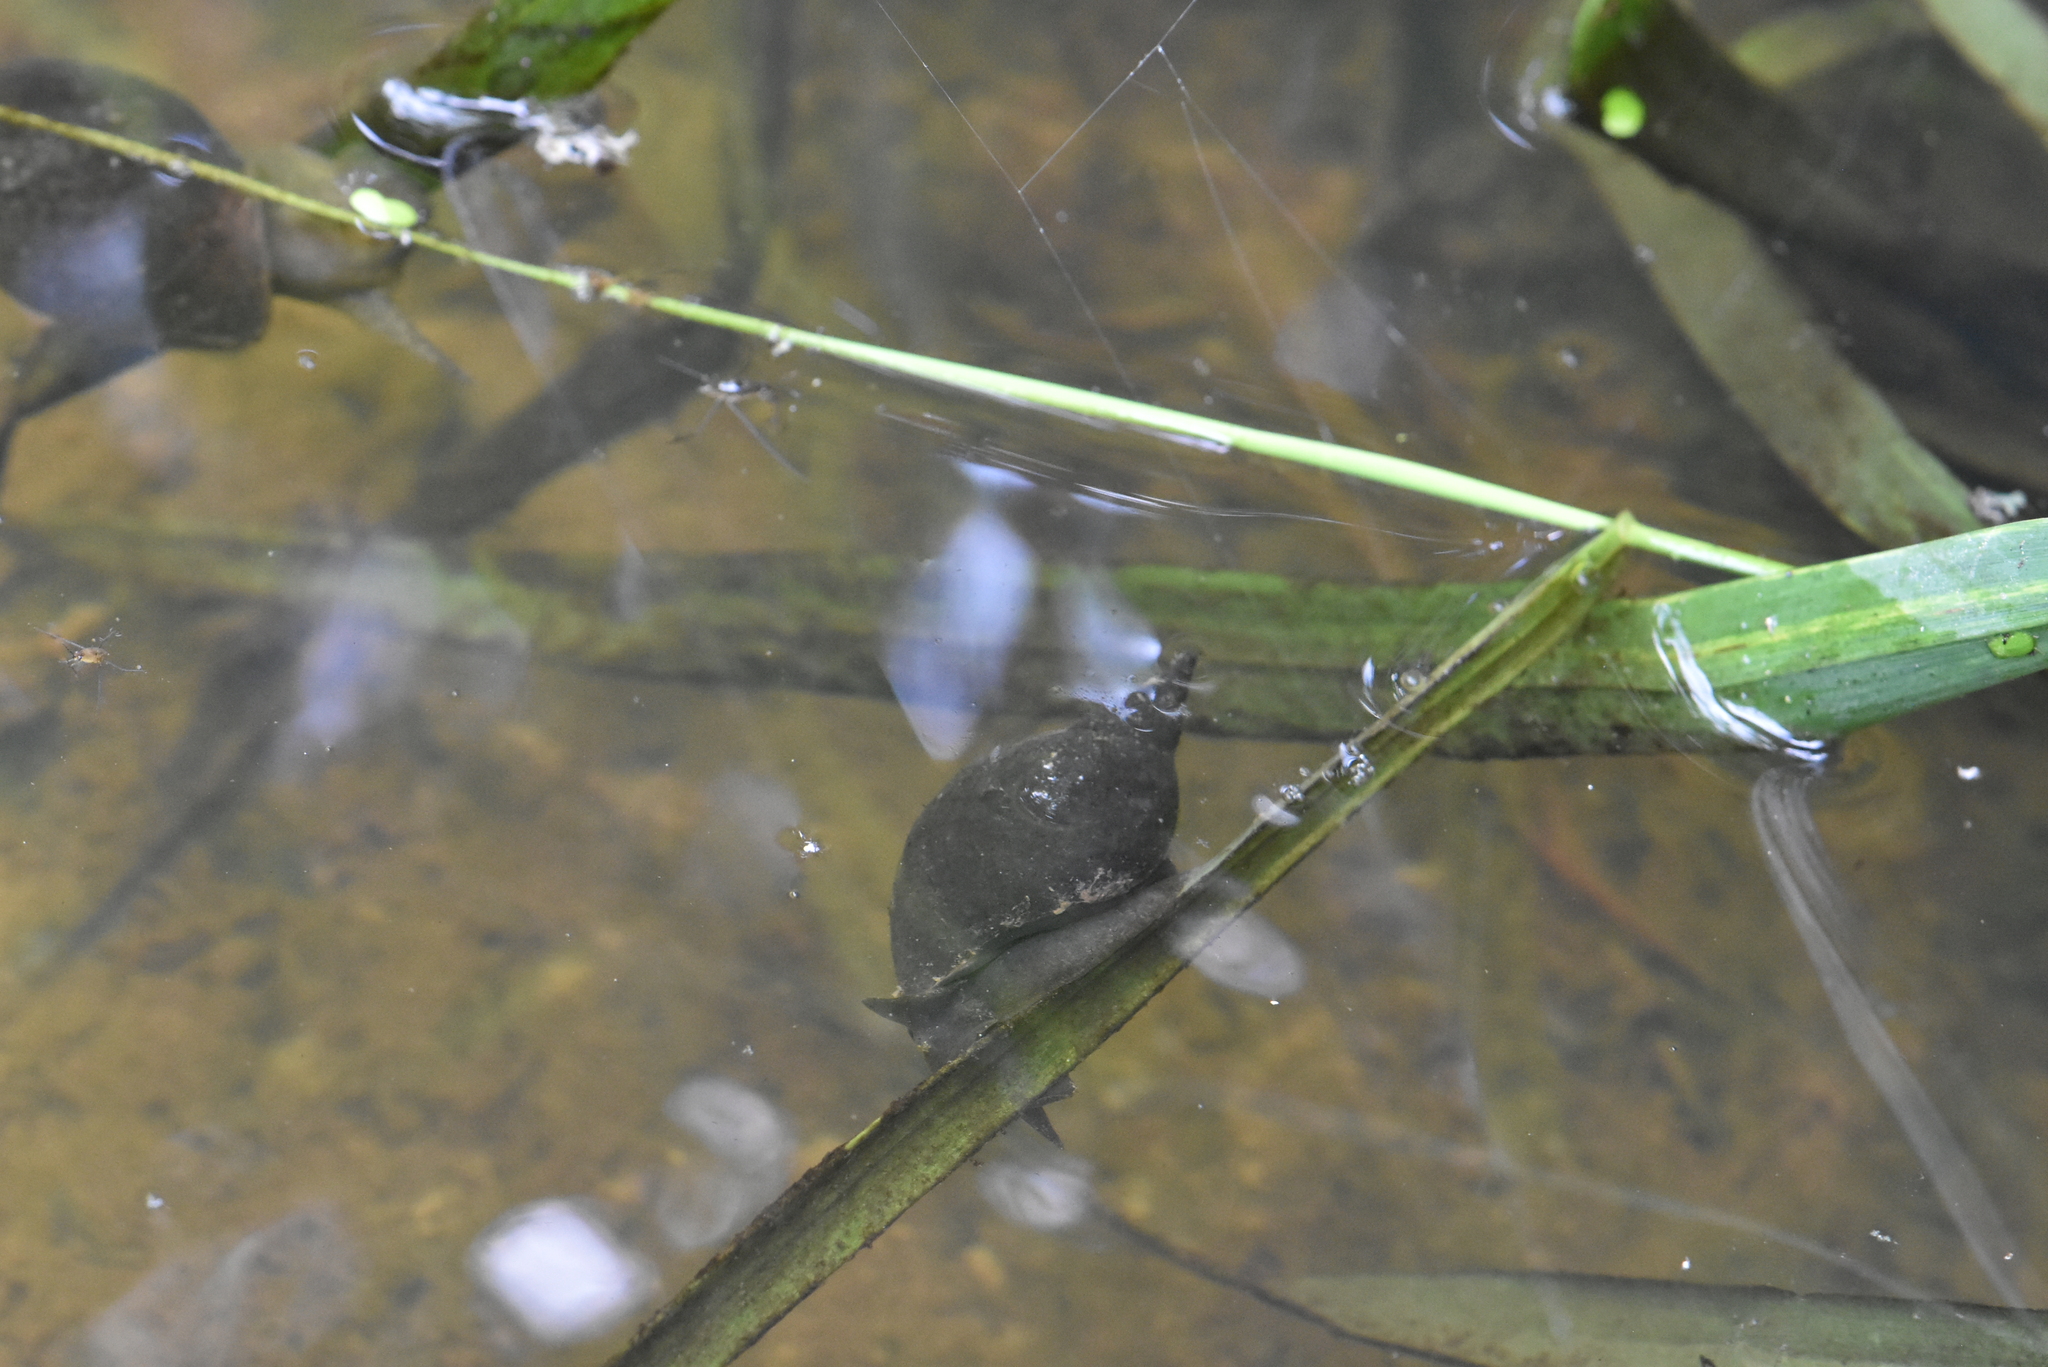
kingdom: Animalia
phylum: Mollusca
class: Gastropoda
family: Lymnaeidae
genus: Lymnaea
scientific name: Lymnaea stagnalis
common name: Great pond snail
